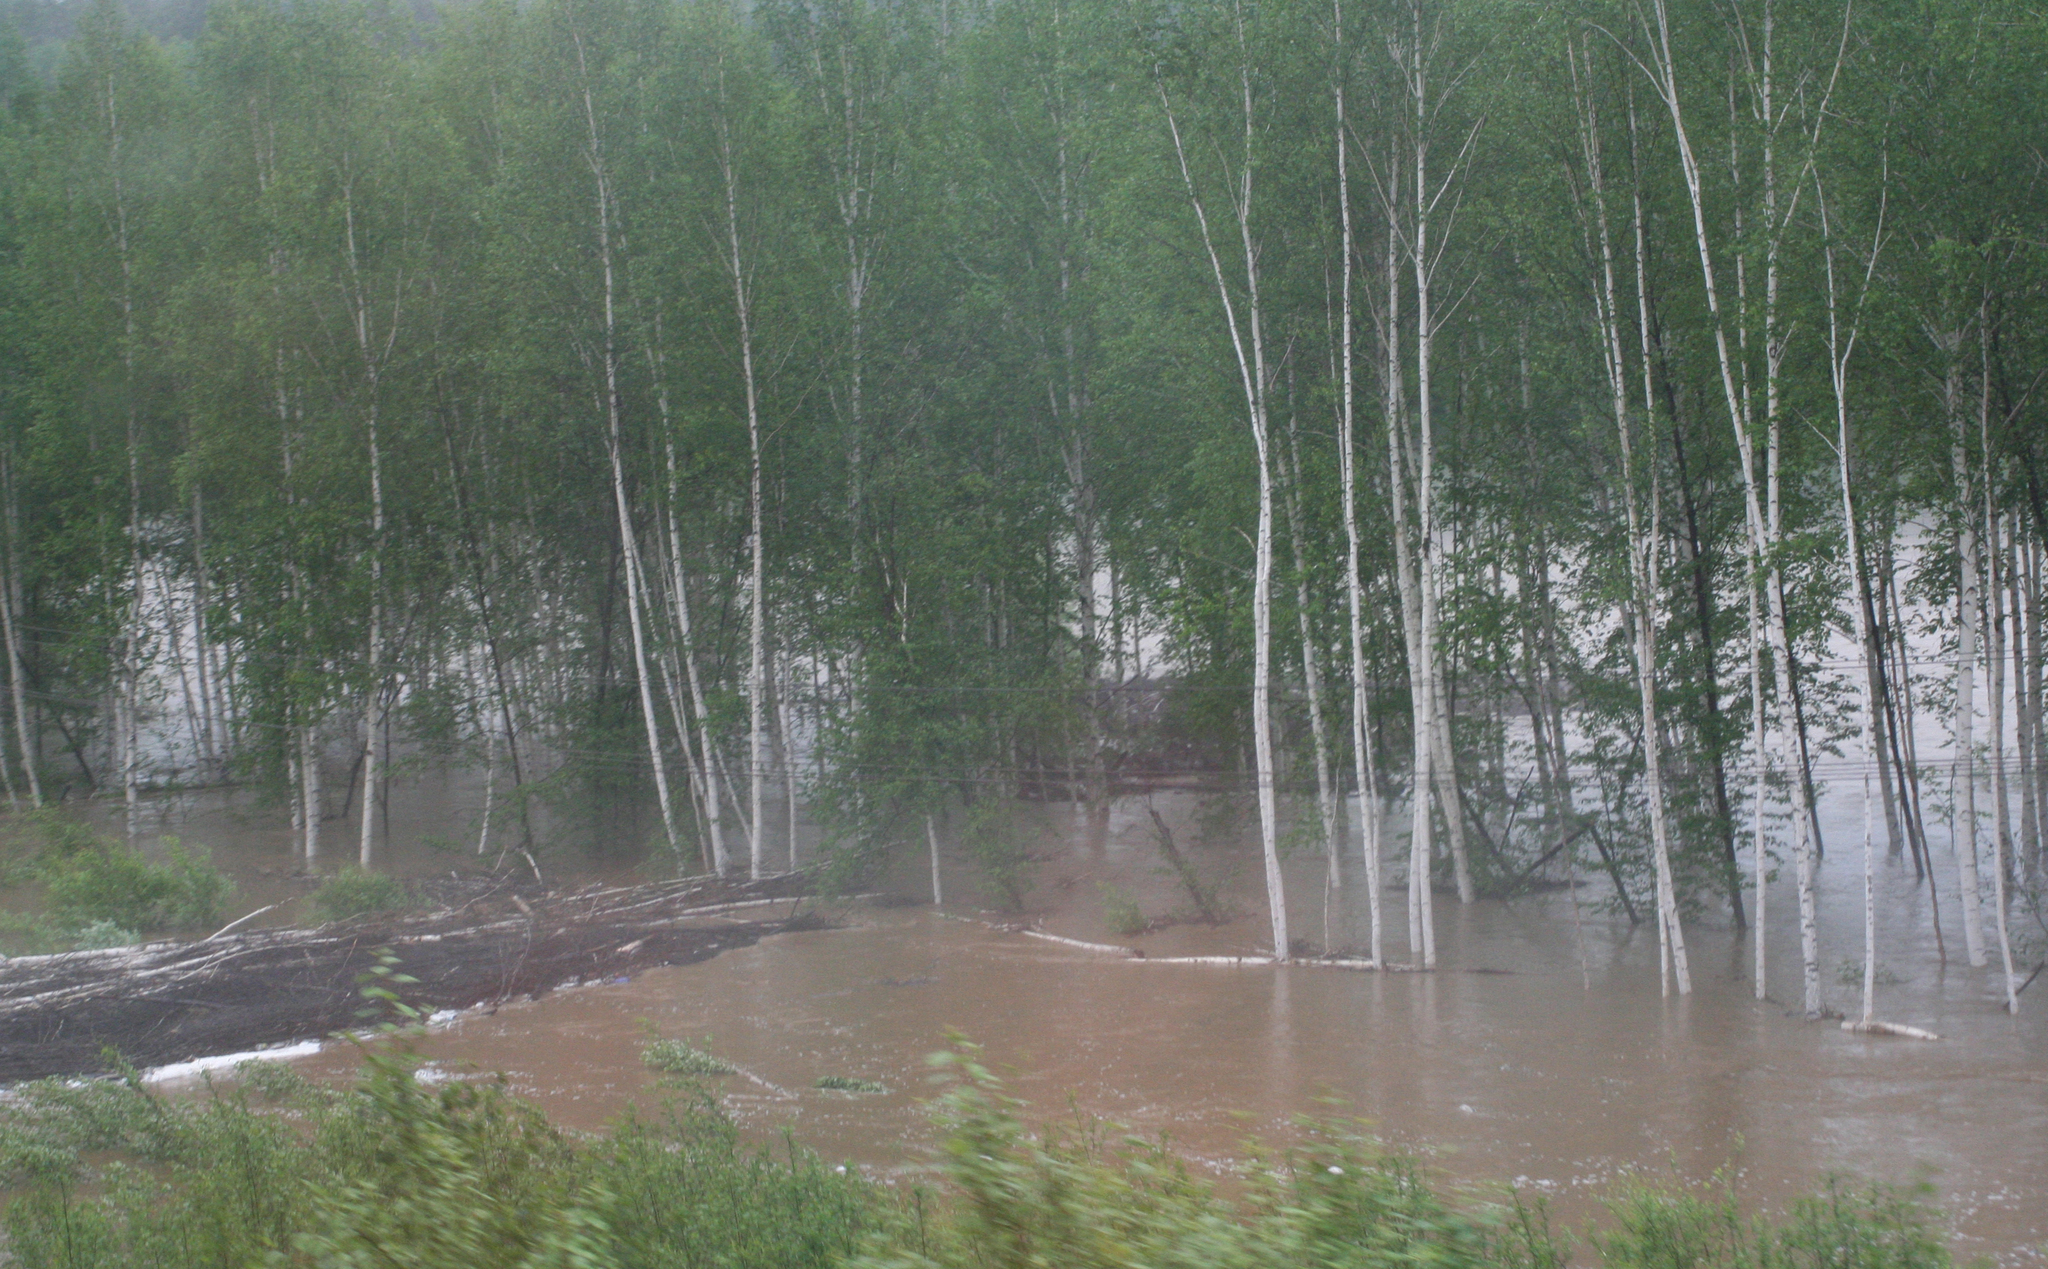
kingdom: Plantae
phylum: Tracheophyta
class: Magnoliopsida
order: Fagales
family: Betulaceae
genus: Betula
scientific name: Betula pendula
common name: Silver birch
